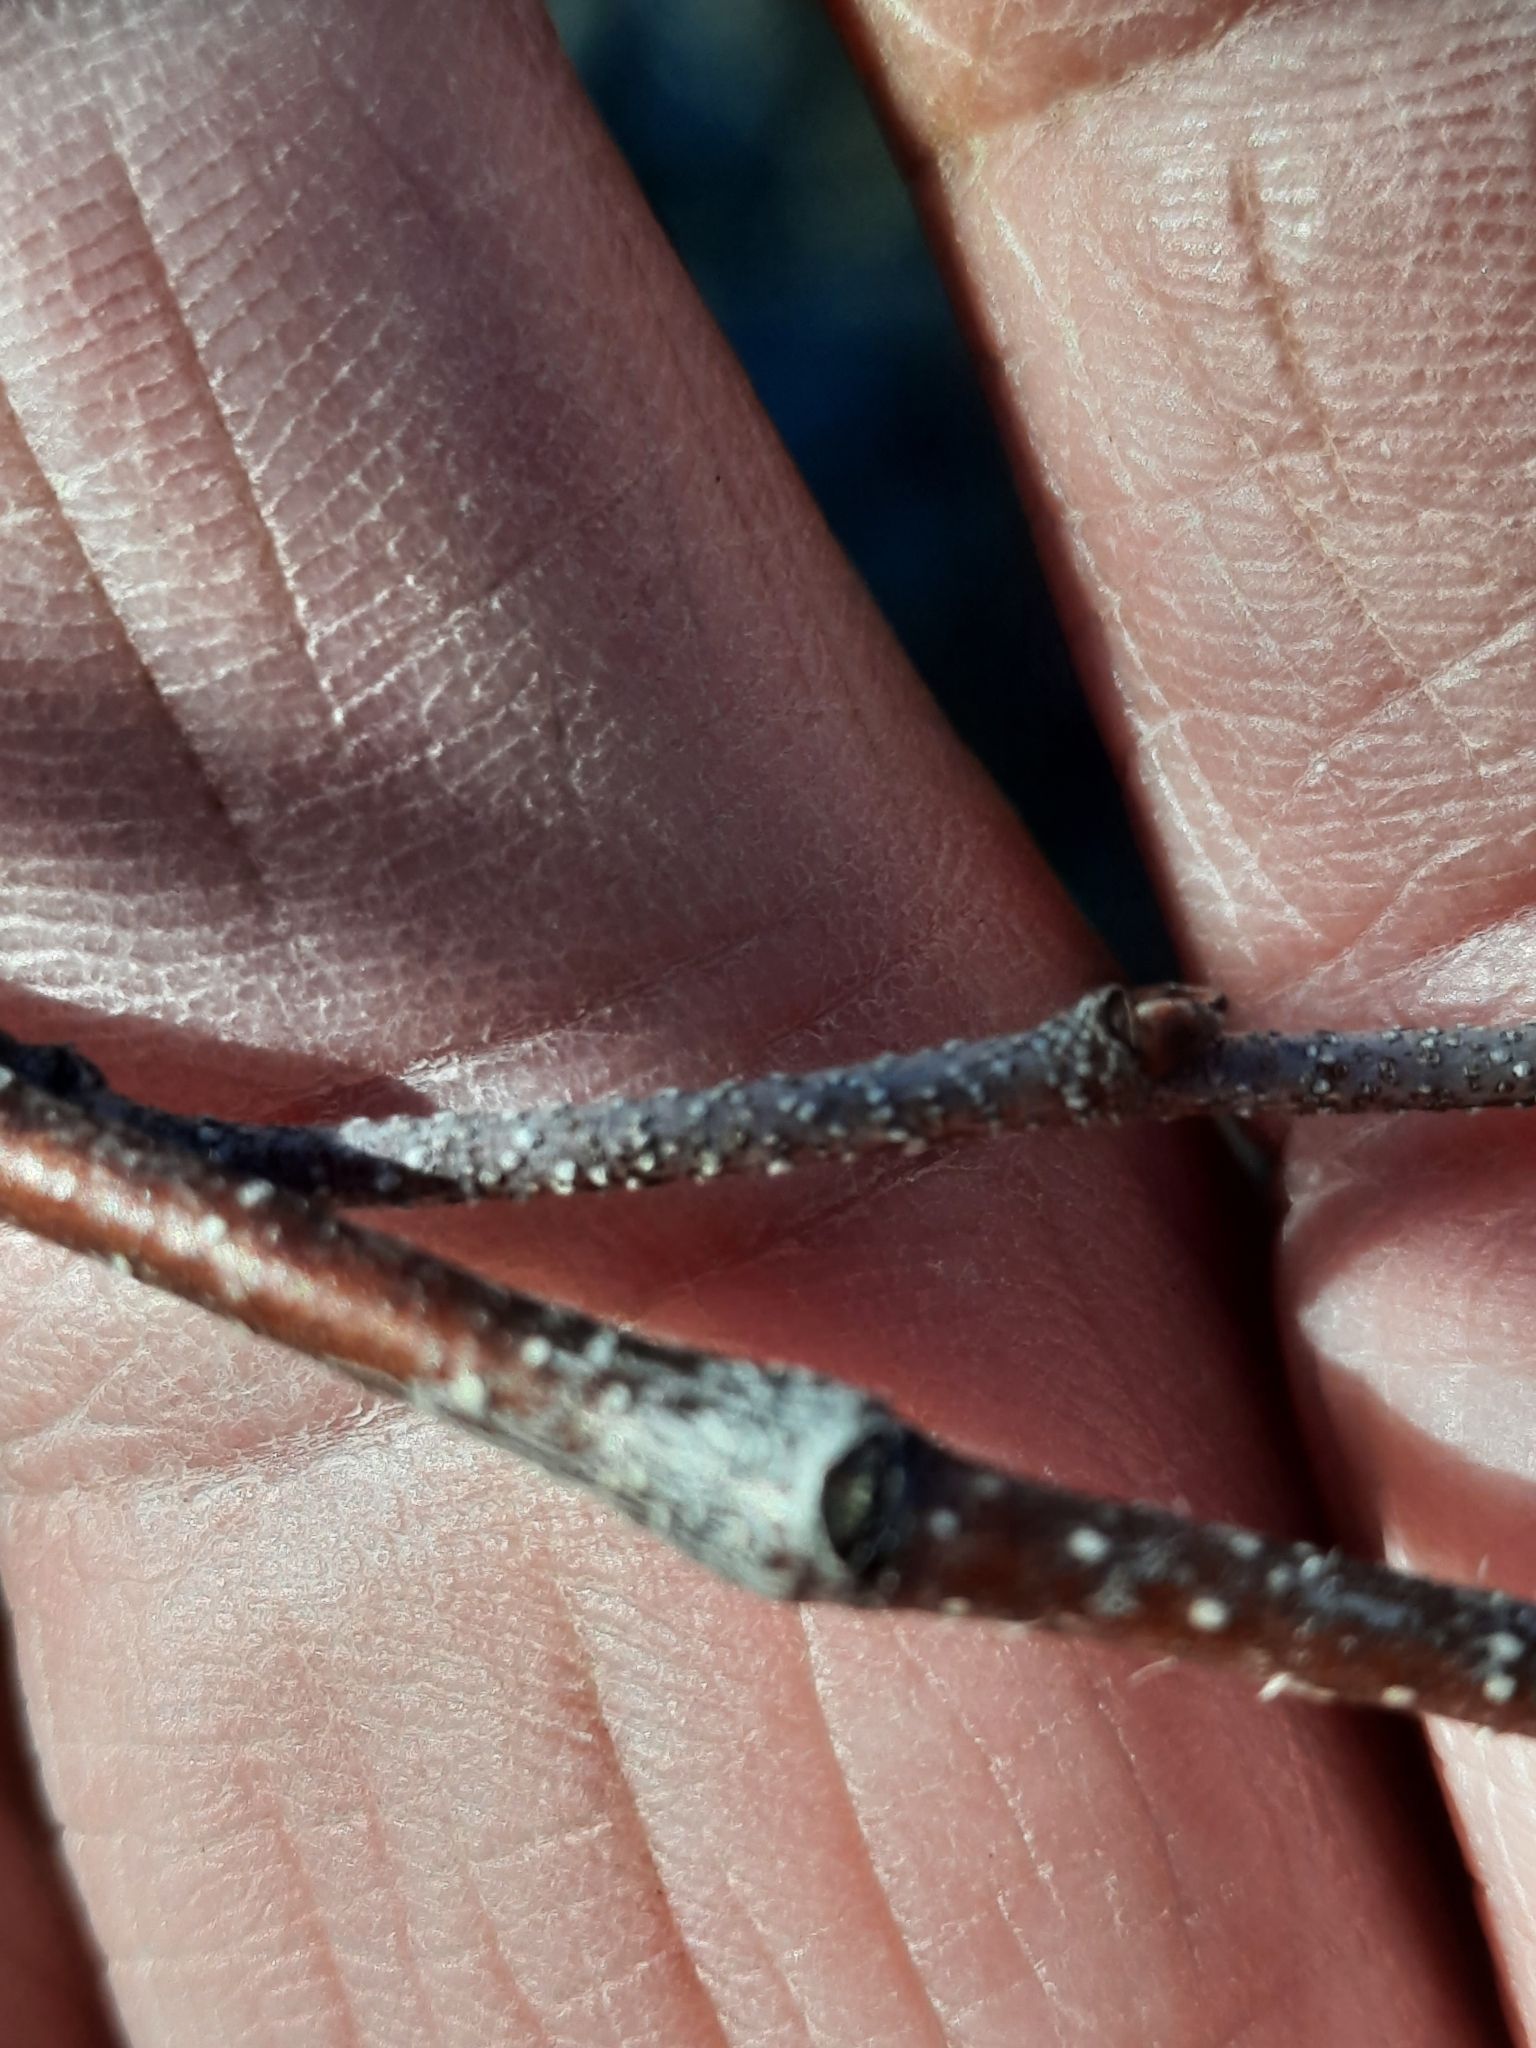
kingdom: Plantae
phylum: Tracheophyta
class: Magnoliopsida
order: Fagales
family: Betulaceae
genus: Betula
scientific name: Betula populifolia
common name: Fire birch
